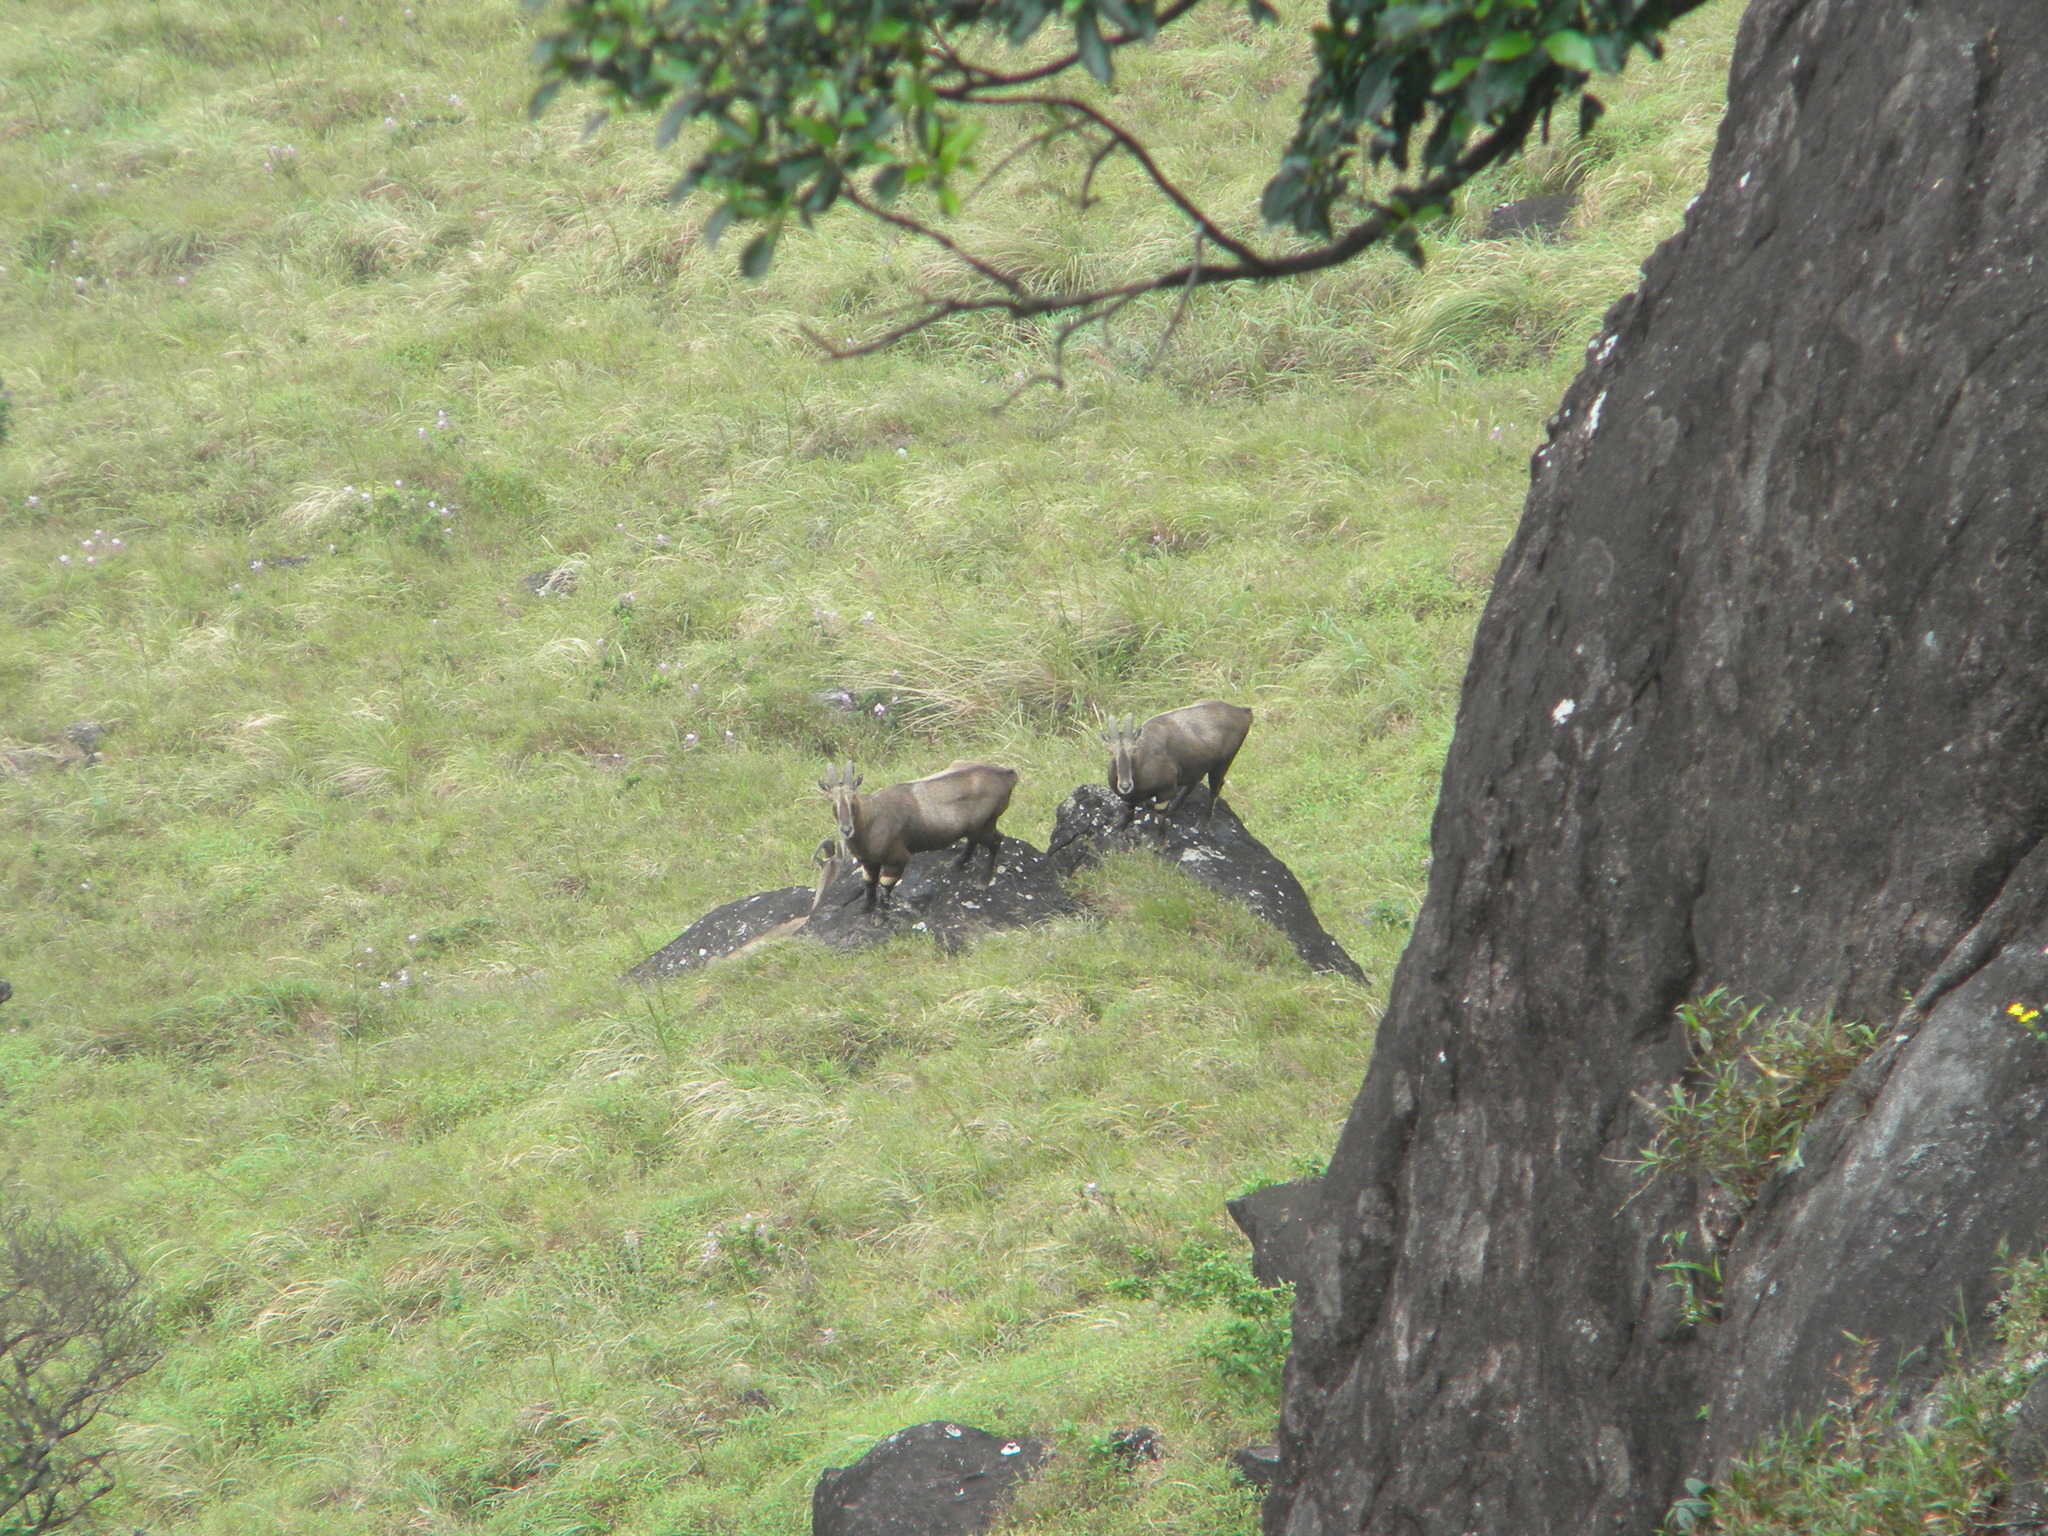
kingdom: Animalia
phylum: Chordata
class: Mammalia
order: Artiodactyla
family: Bovidae
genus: Hemitragus
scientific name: Hemitragus hylocrius
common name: Nilgiri tahr
